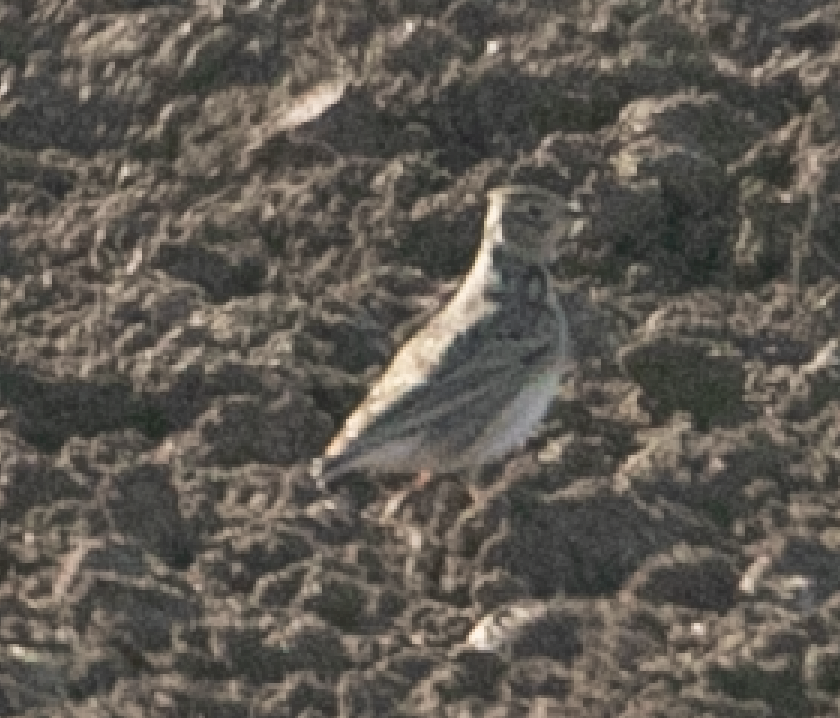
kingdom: Animalia
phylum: Chordata
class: Aves
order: Passeriformes
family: Alaudidae
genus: Alauda
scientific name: Alauda arvensis
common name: Eurasian skylark
